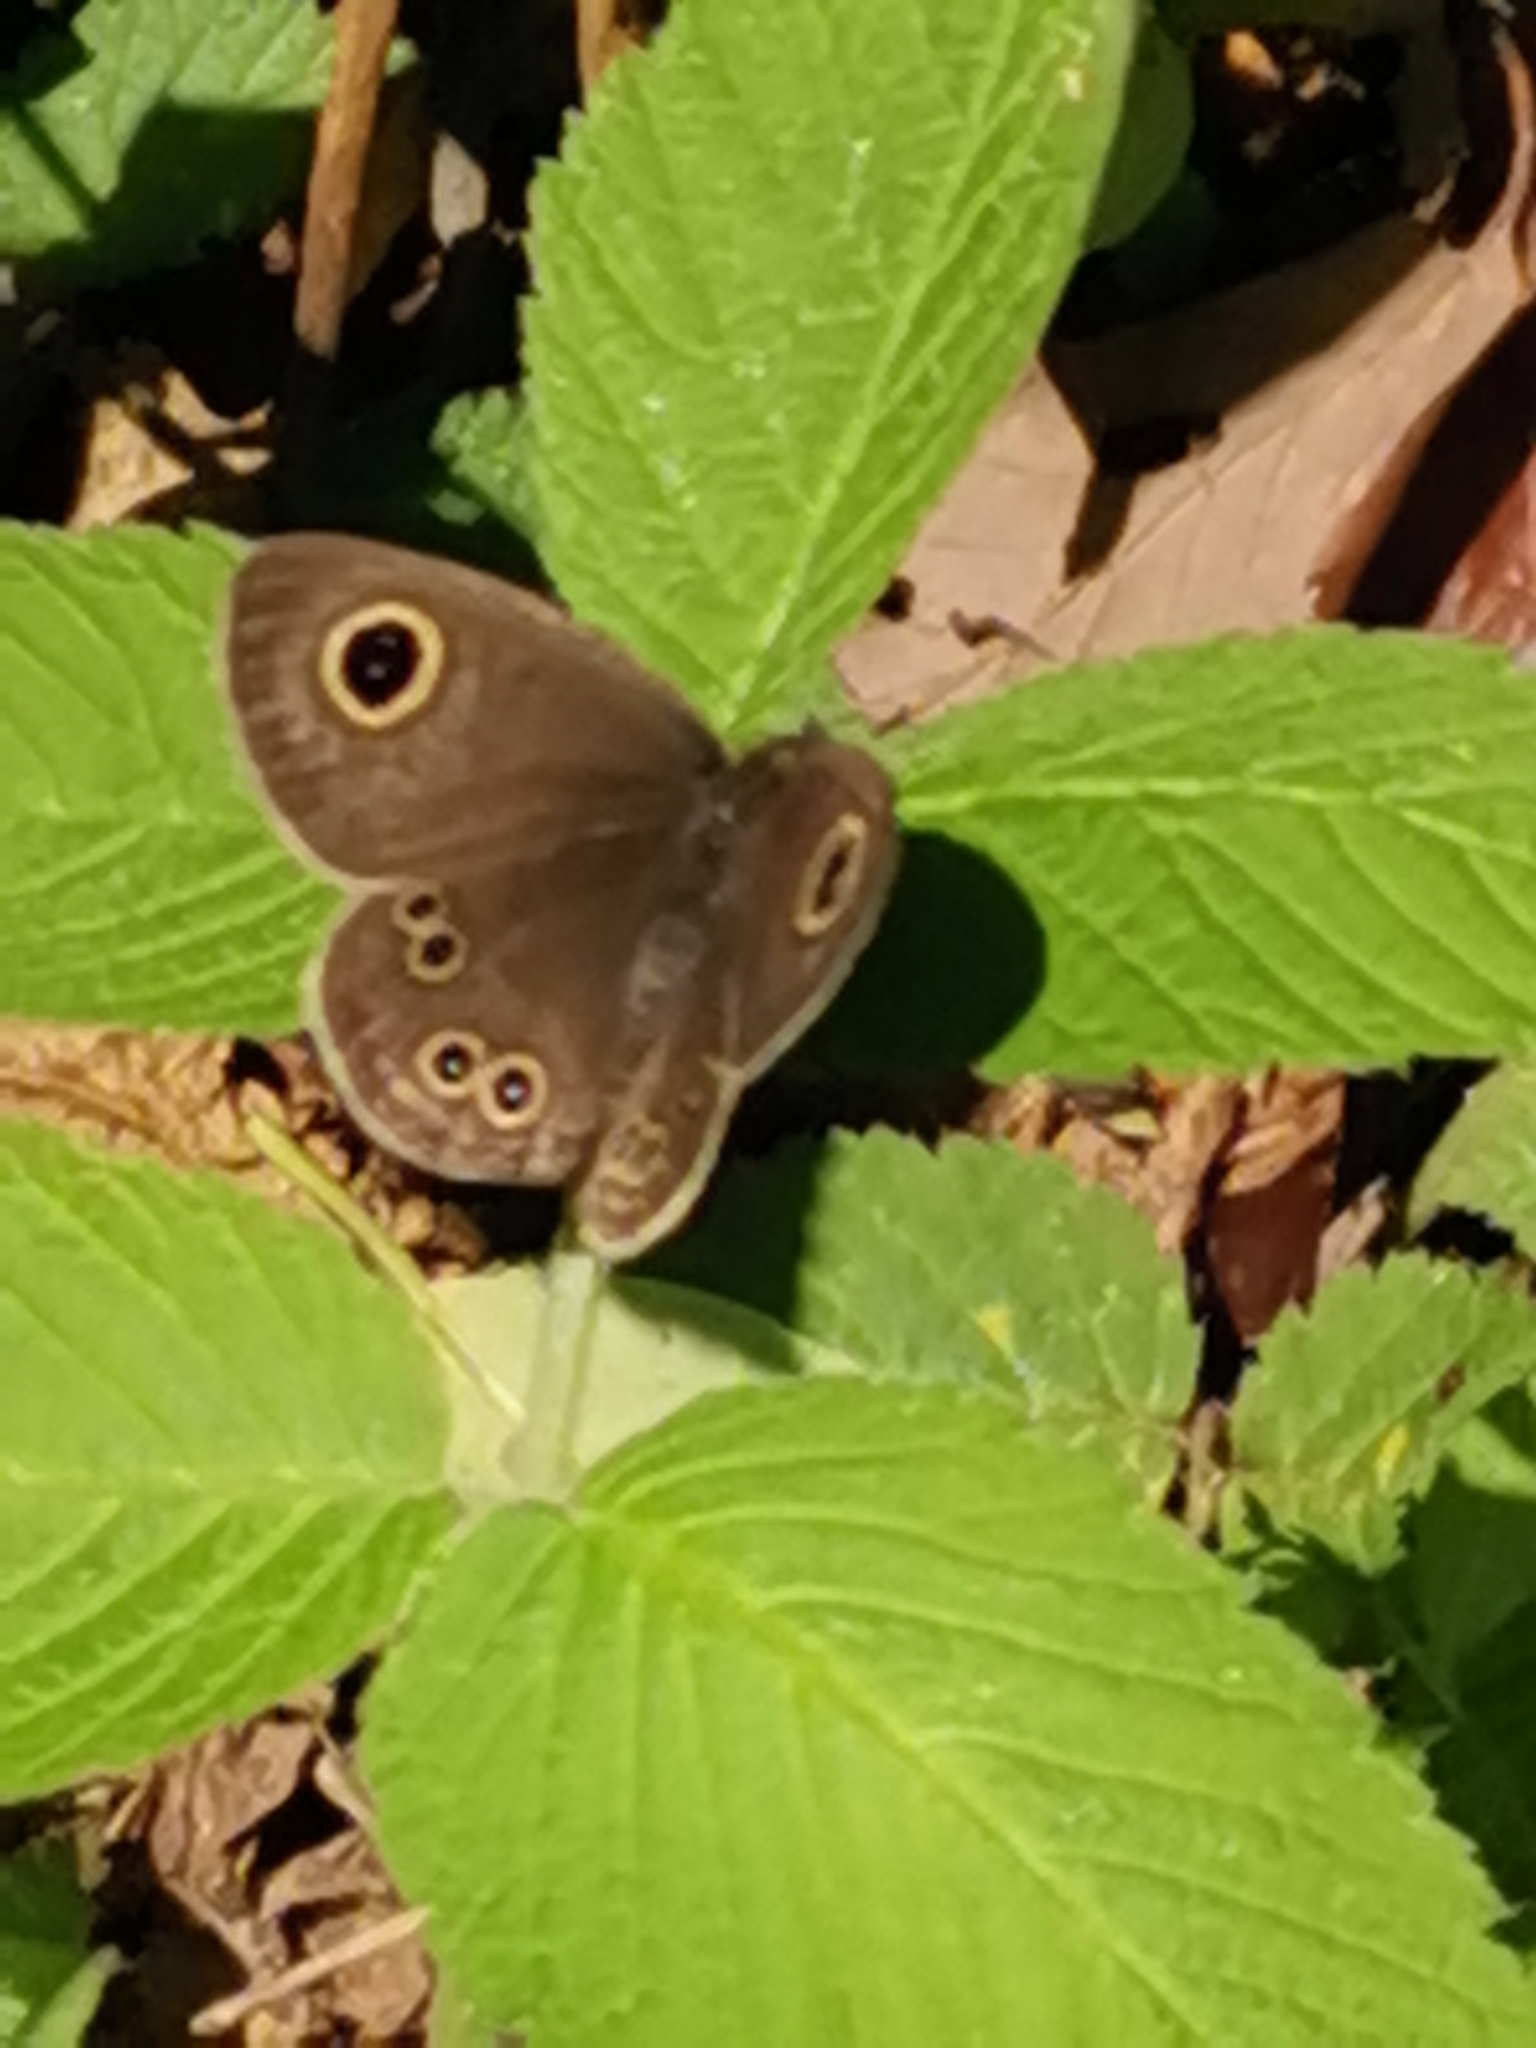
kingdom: Animalia
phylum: Arthropoda
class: Insecta
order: Lepidoptera
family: Nymphalidae
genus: Ypthima
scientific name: Ypthima argus
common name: Common fivering
